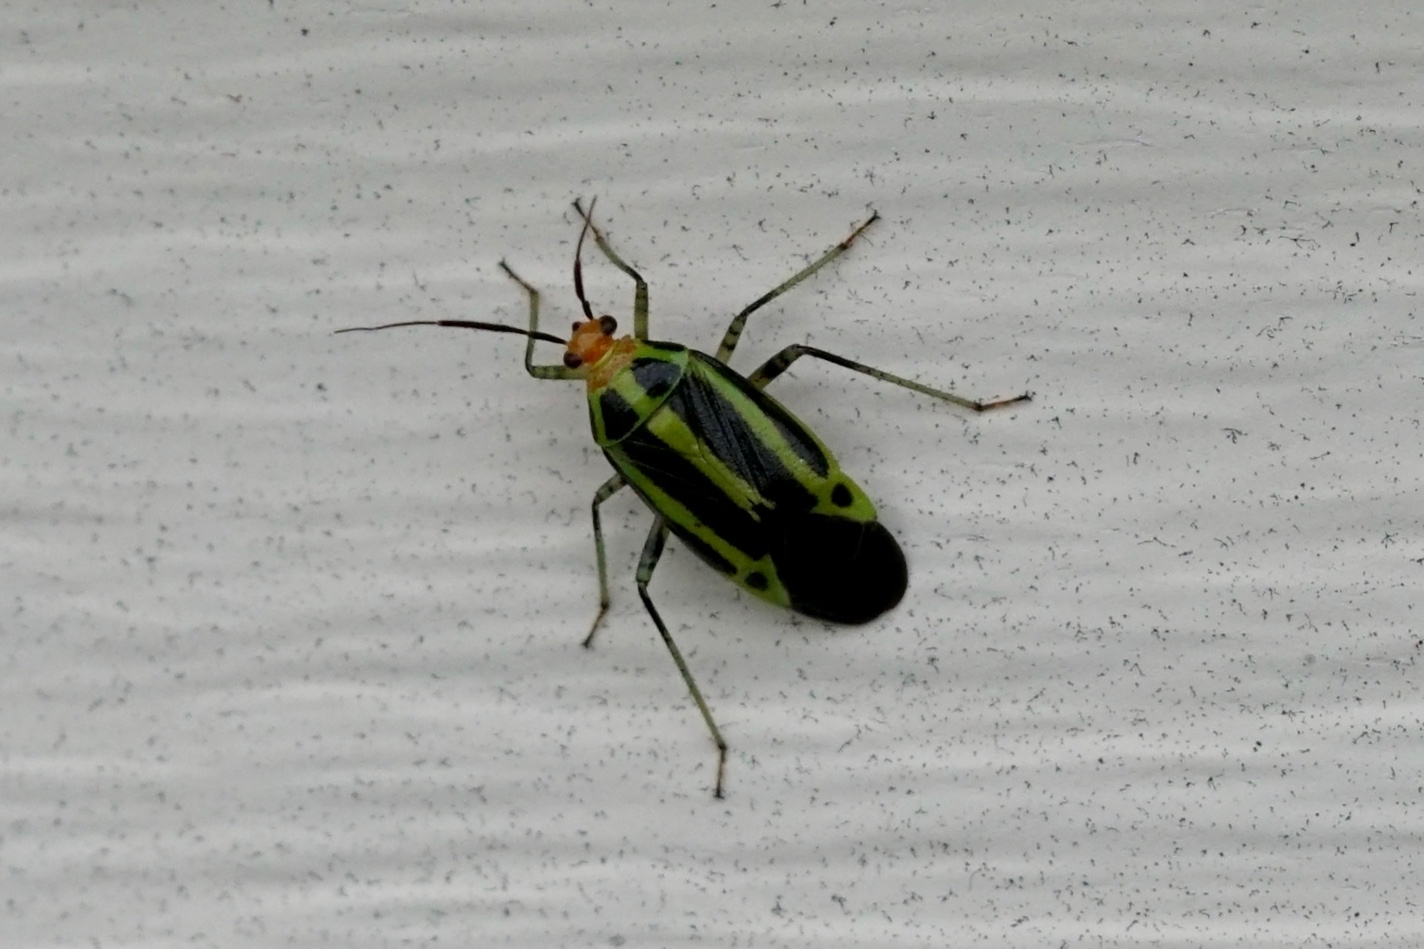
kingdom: Animalia
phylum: Arthropoda
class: Insecta
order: Hemiptera
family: Miridae
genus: Poecilocapsus
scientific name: Poecilocapsus lineatus
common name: Four-lined plant bug
